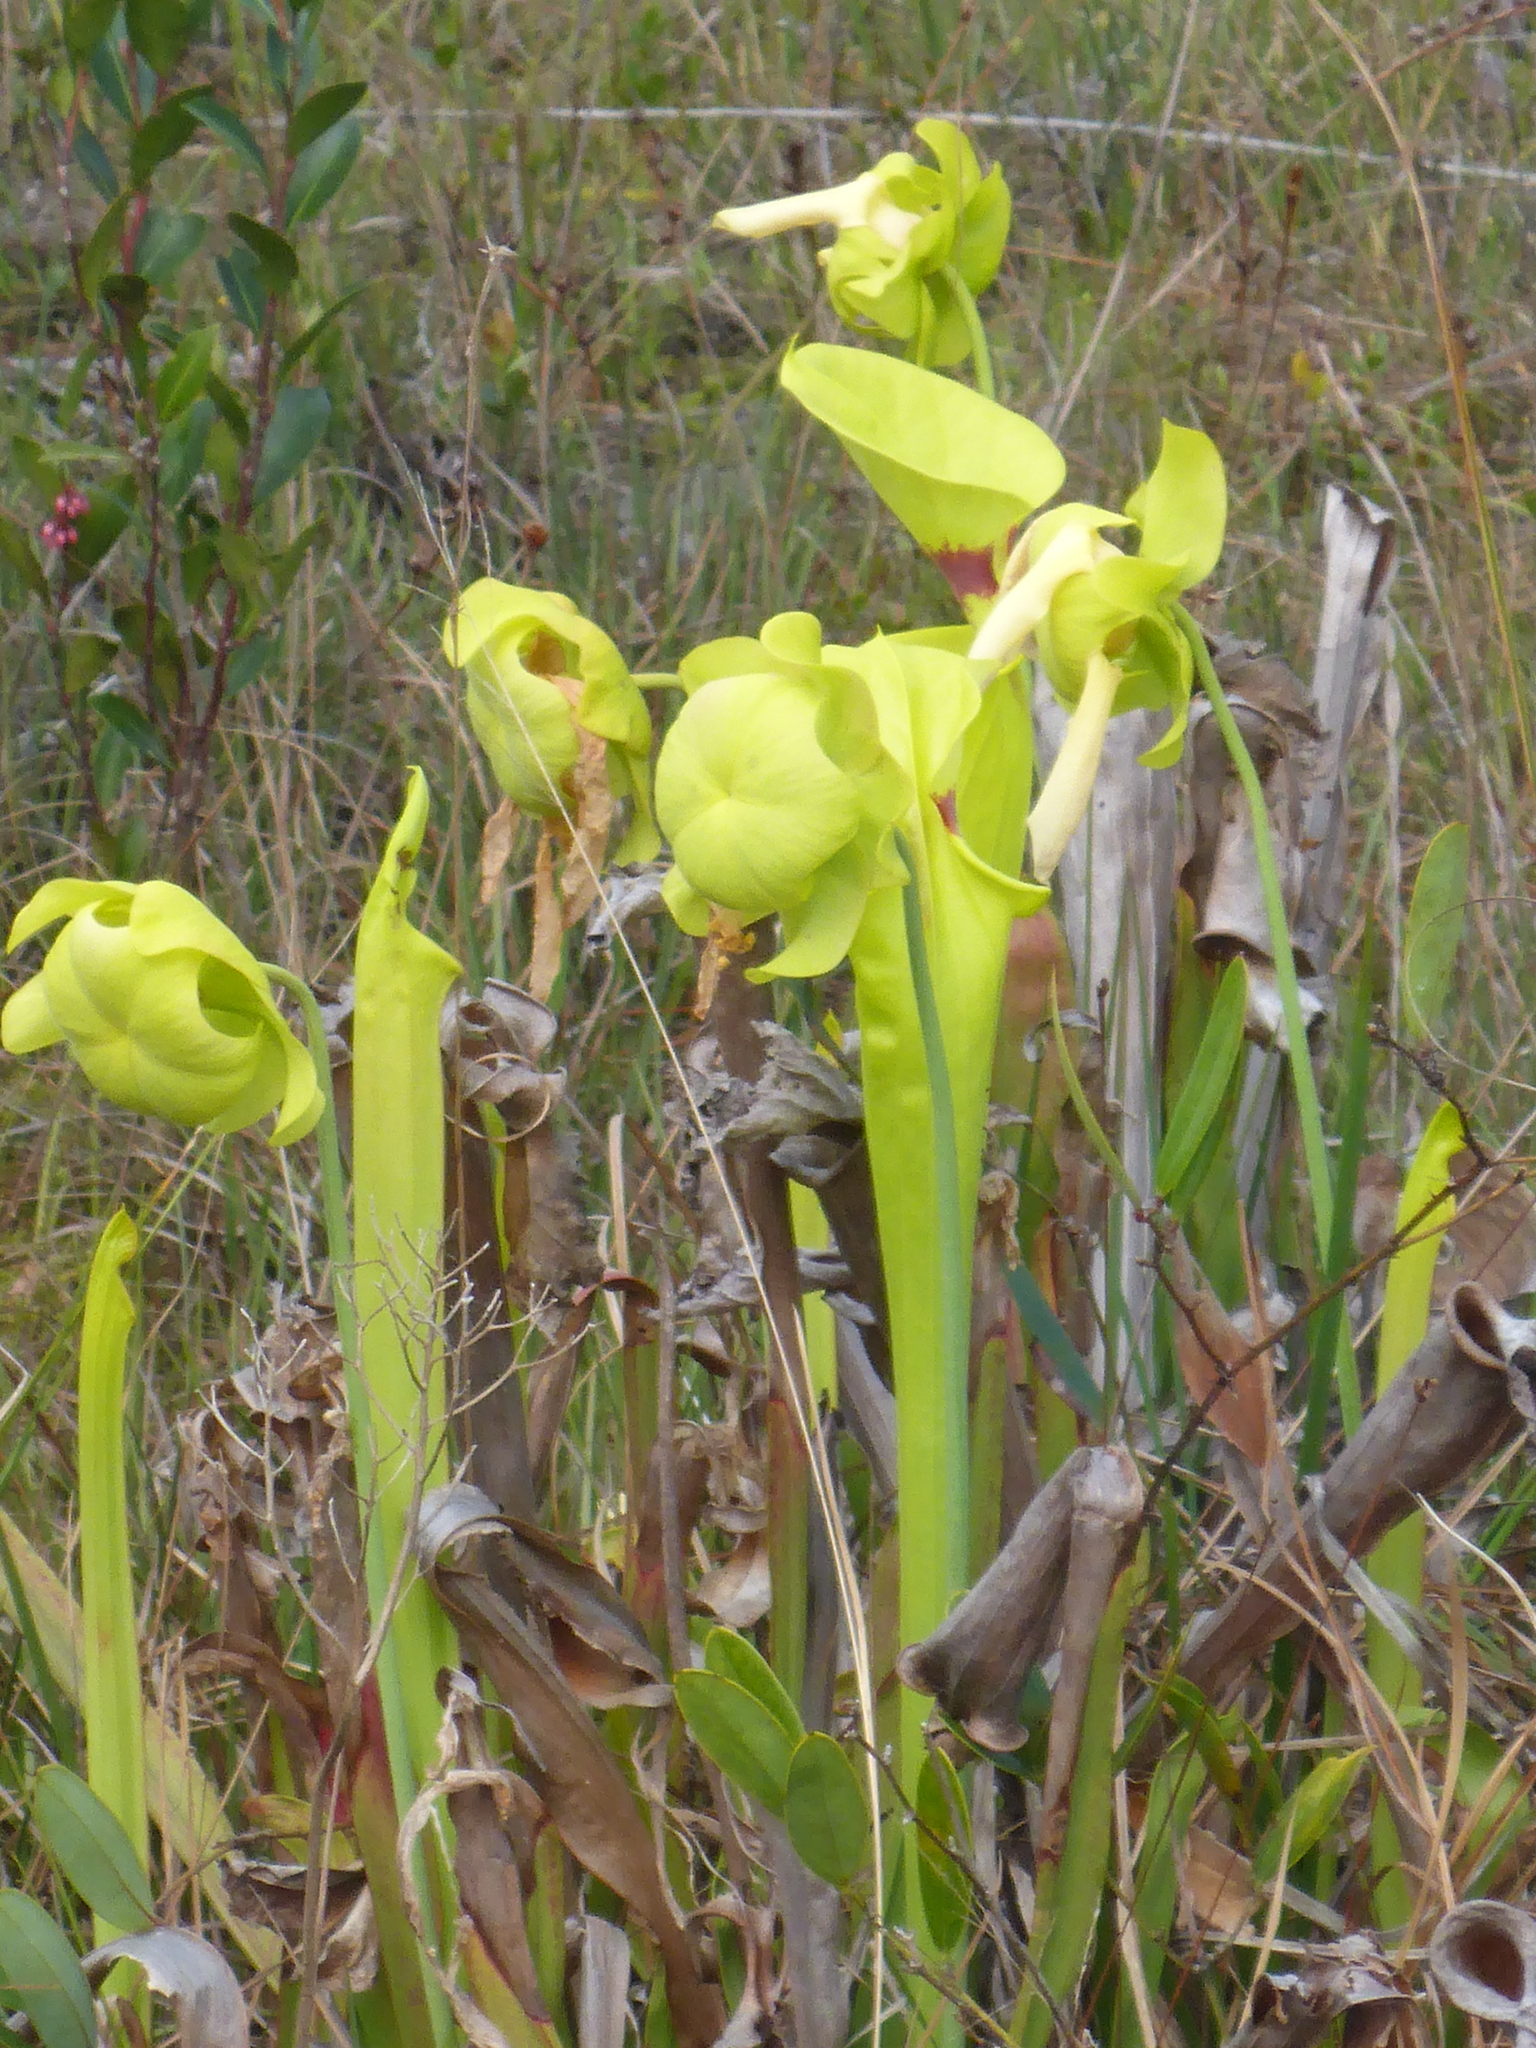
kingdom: Plantae
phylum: Tracheophyta
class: Magnoliopsida
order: Ericales
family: Sarraceniaceae
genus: Sarracenia
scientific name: Sarracenia flava
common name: Trumpets
